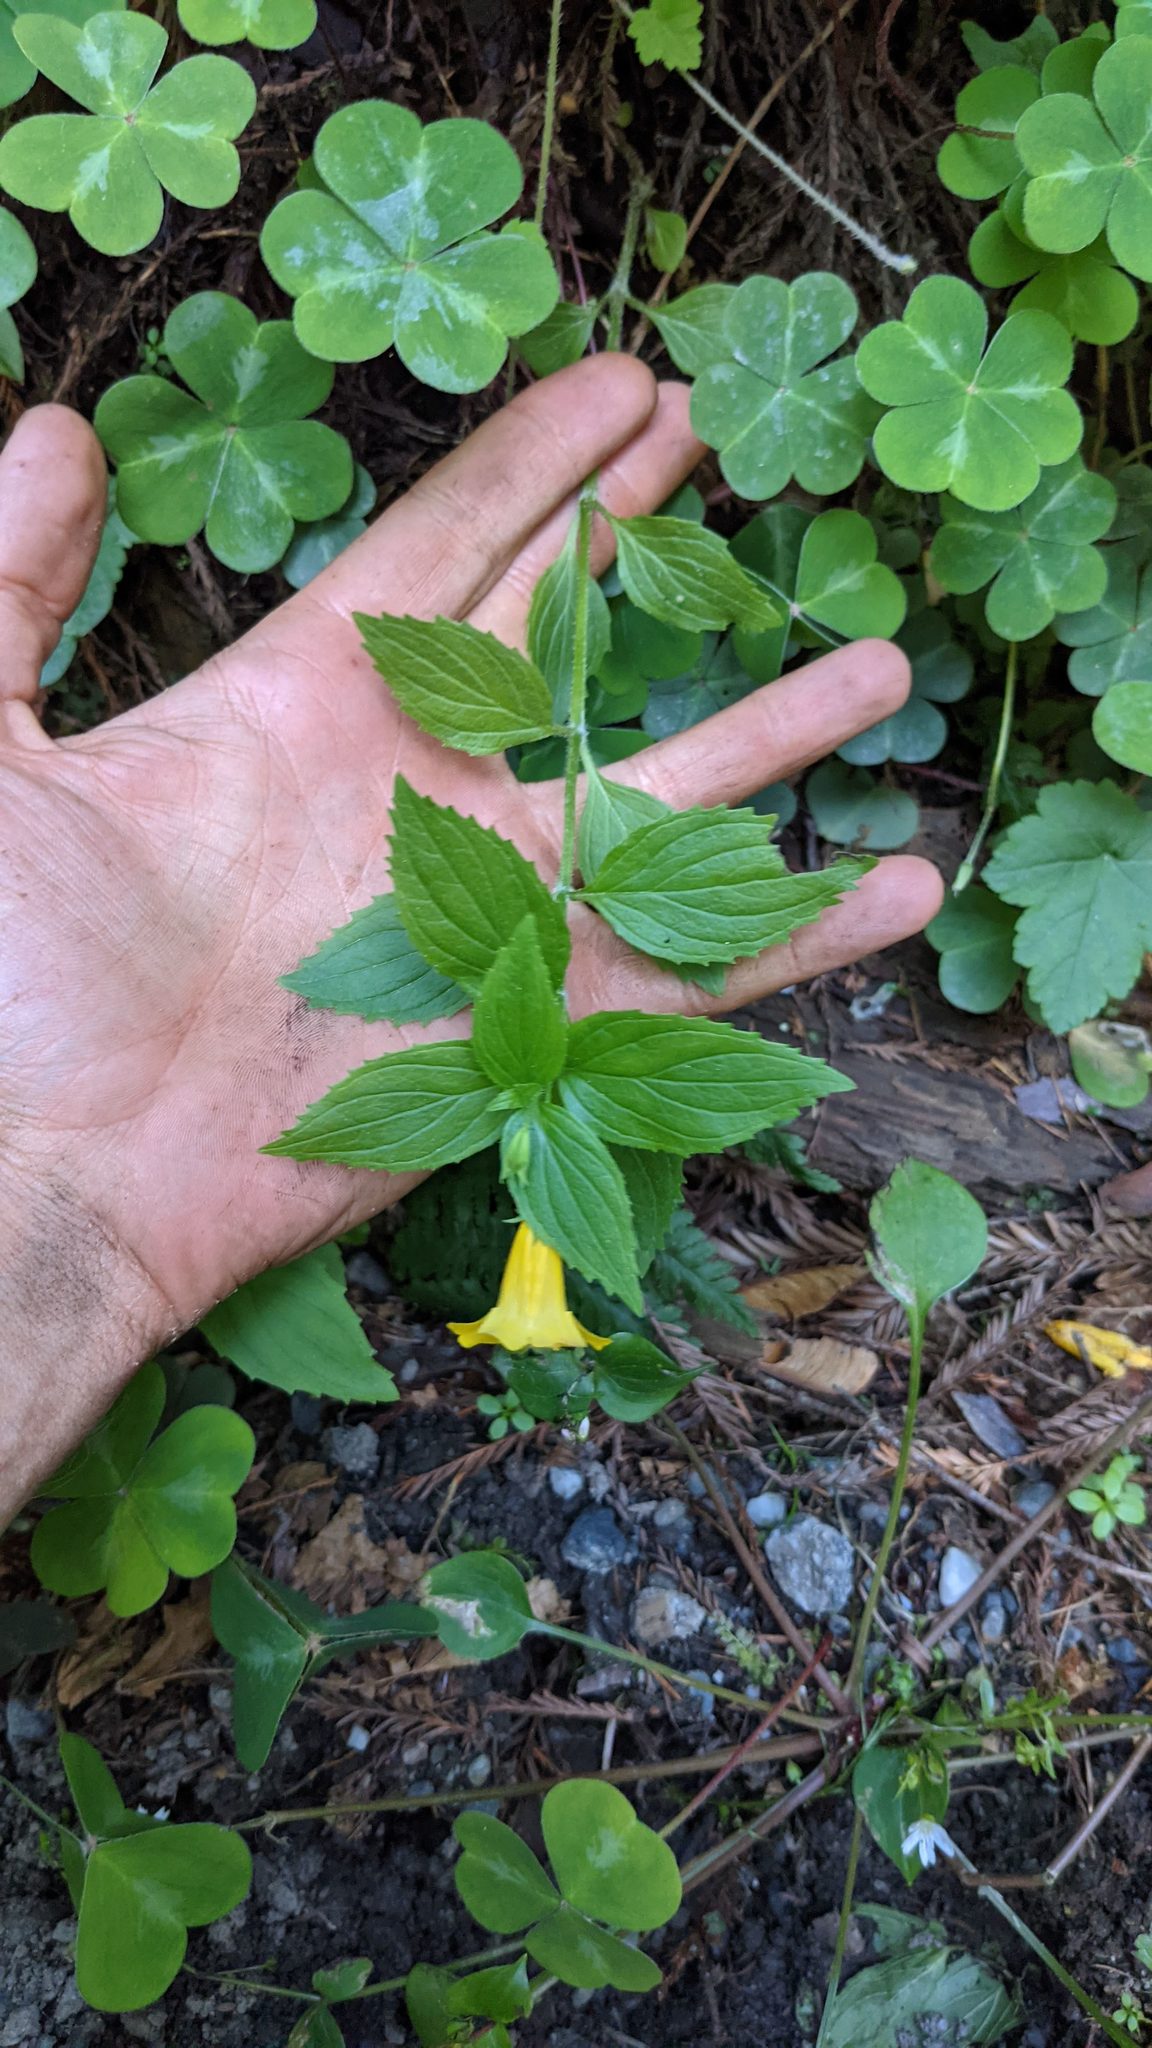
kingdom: Plantae
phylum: Tracheophyta
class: Magnoliopsida
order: Lamiales
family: Phrymaceae
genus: Erythranthe
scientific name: Erythranthe dentata
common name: Coastal monkeyflower
